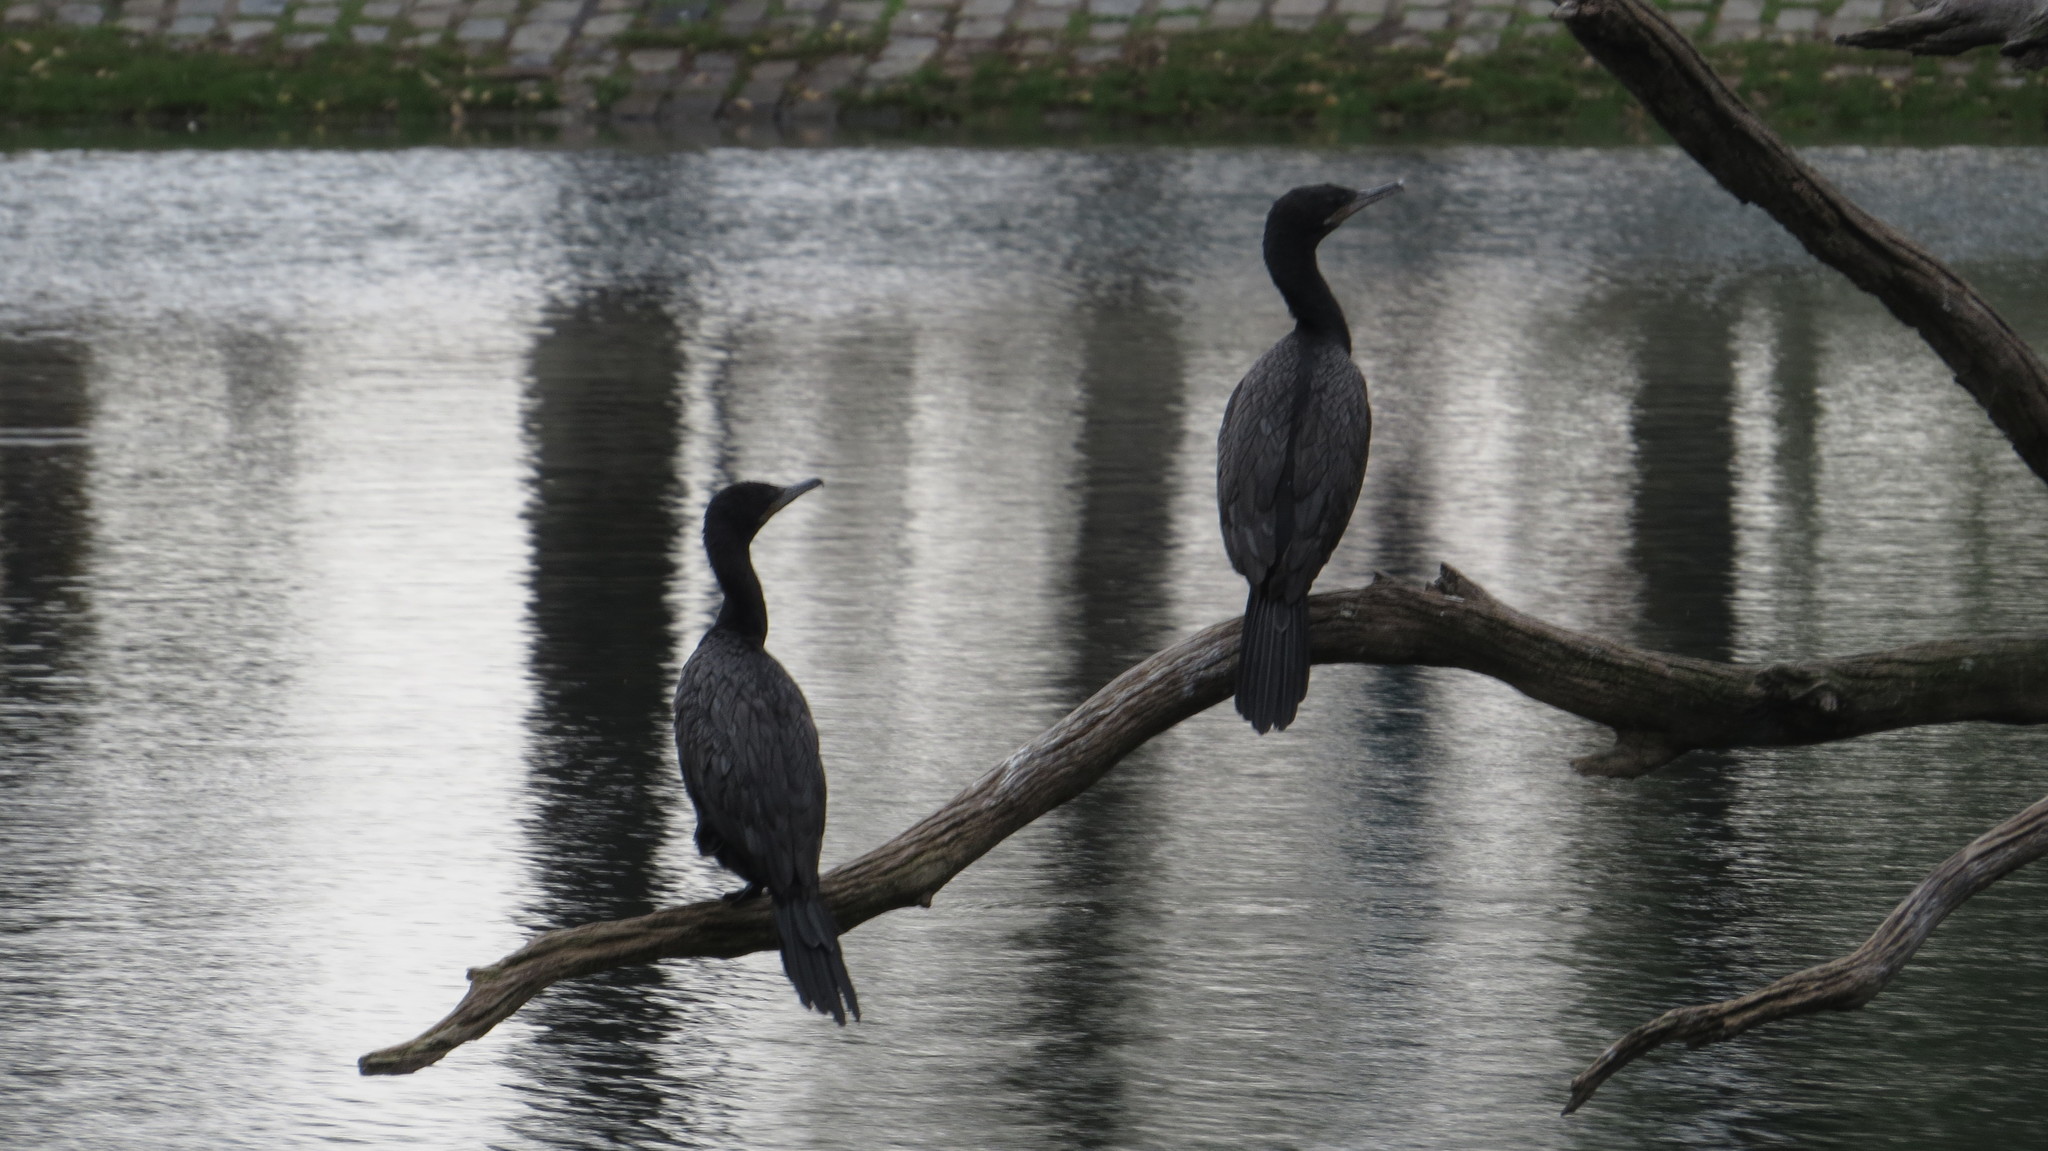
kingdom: Animalia
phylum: Chordata
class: Aves
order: Suliformes
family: Phalacrocoracidae
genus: Phalacrocorax
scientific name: Phalacrocorax brasilianus
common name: Neotropic cormorant
